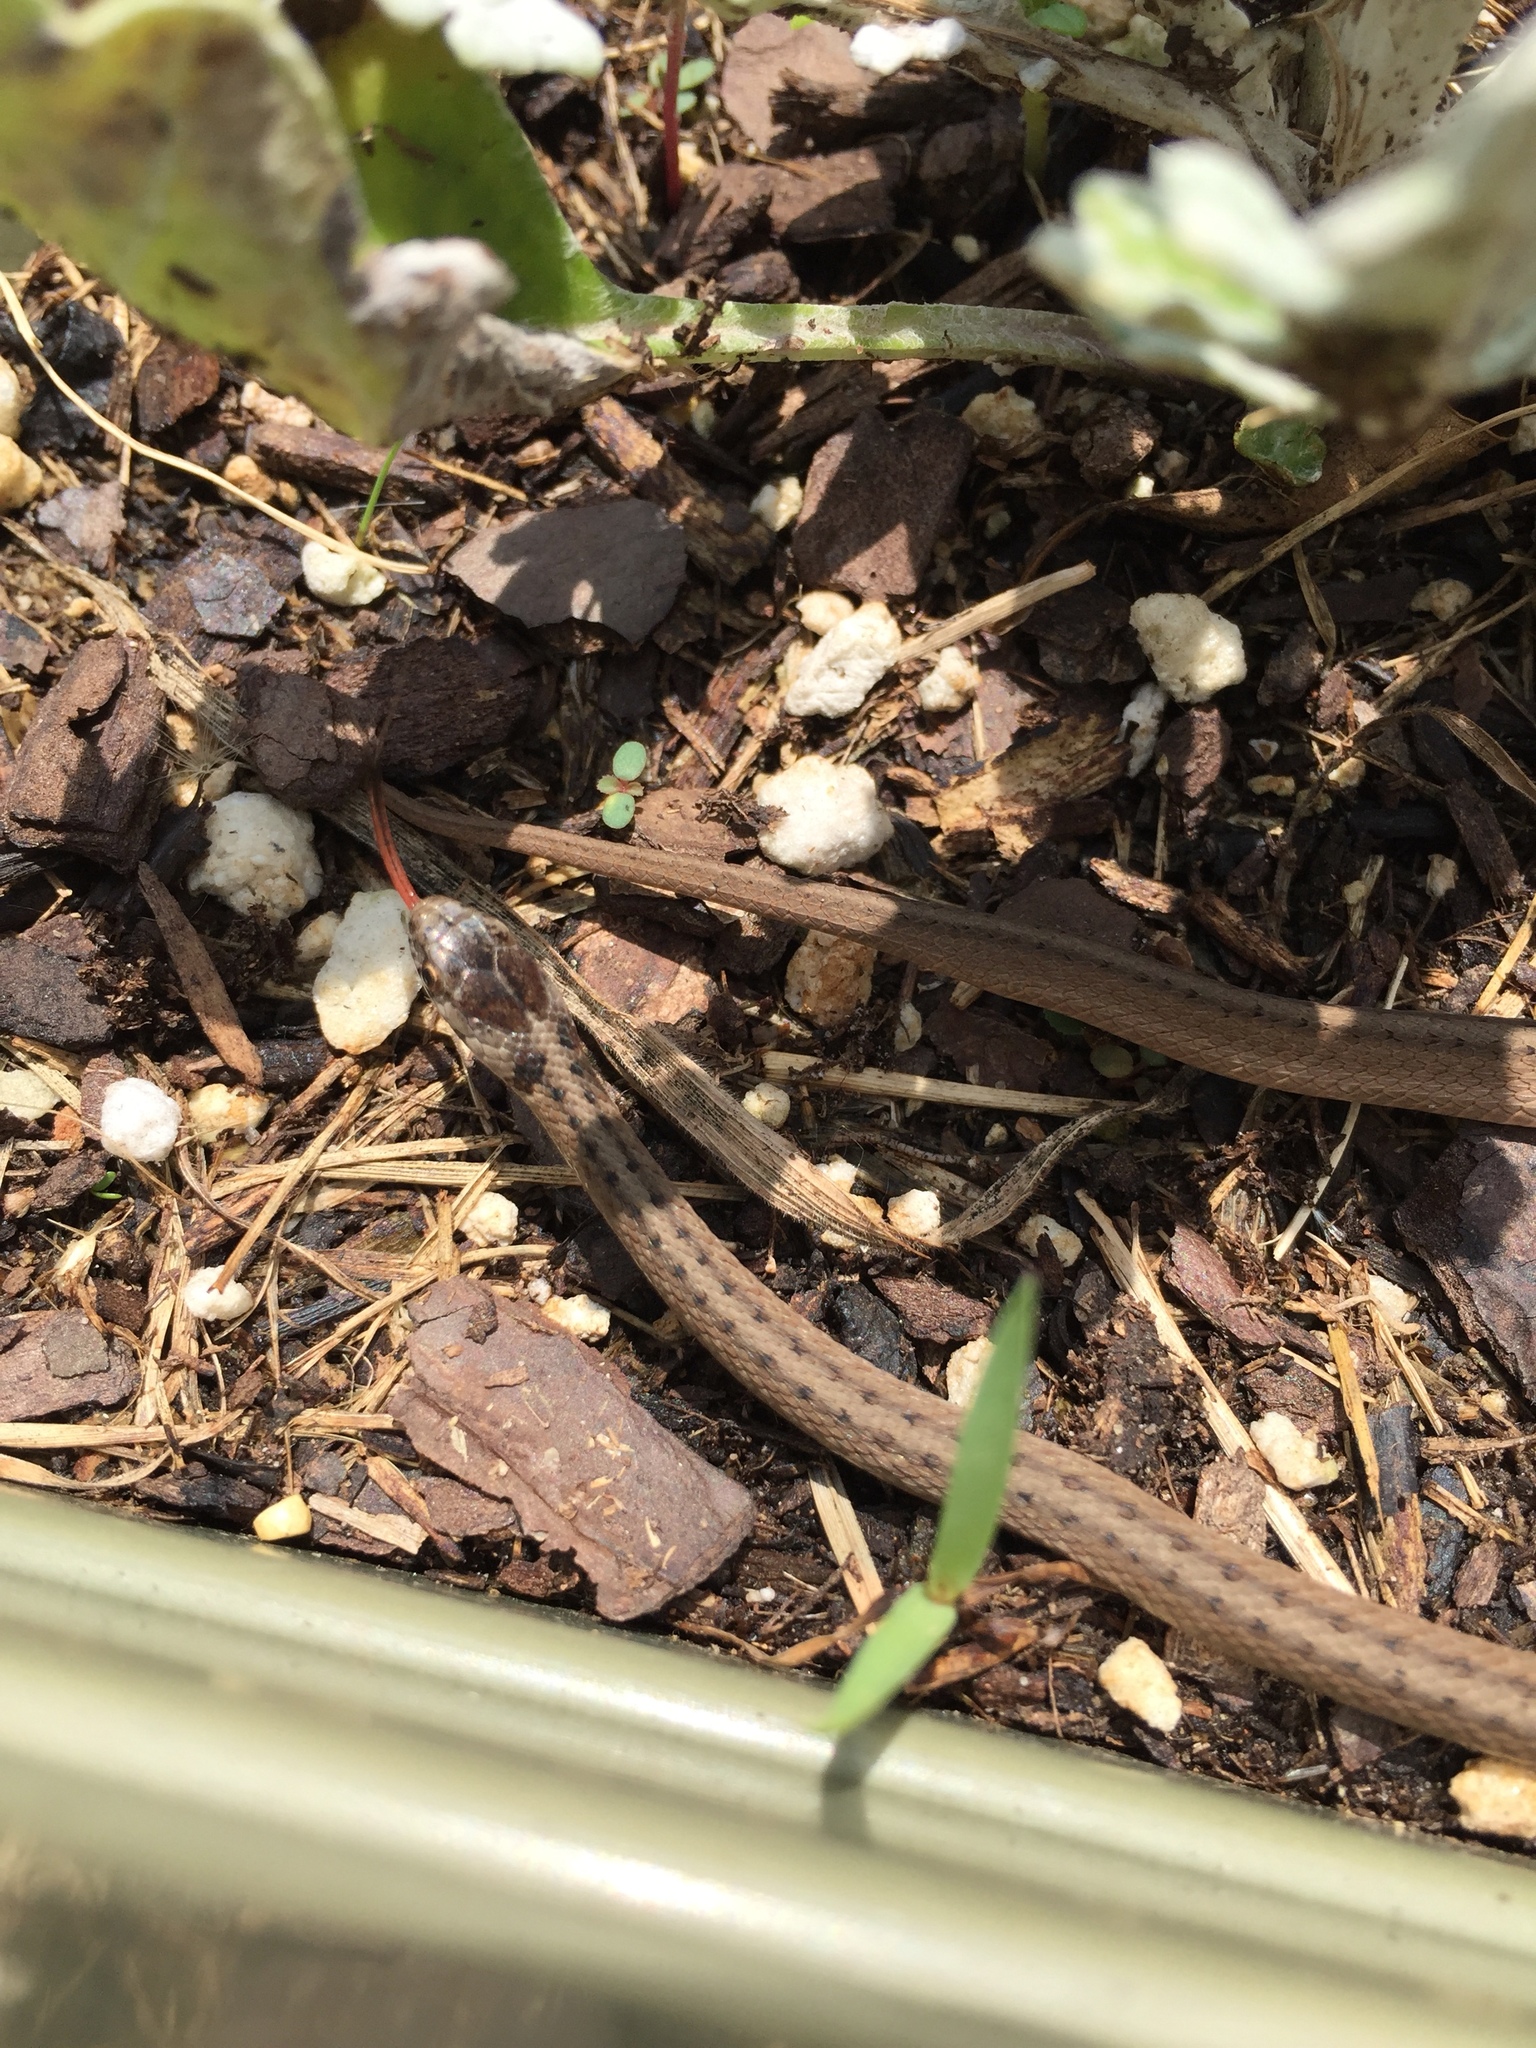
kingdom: Animalia
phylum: Chordata
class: Squamata
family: Colubridae
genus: Storeria
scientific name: Storeria dekayi
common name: (dekay’s) brown snake
